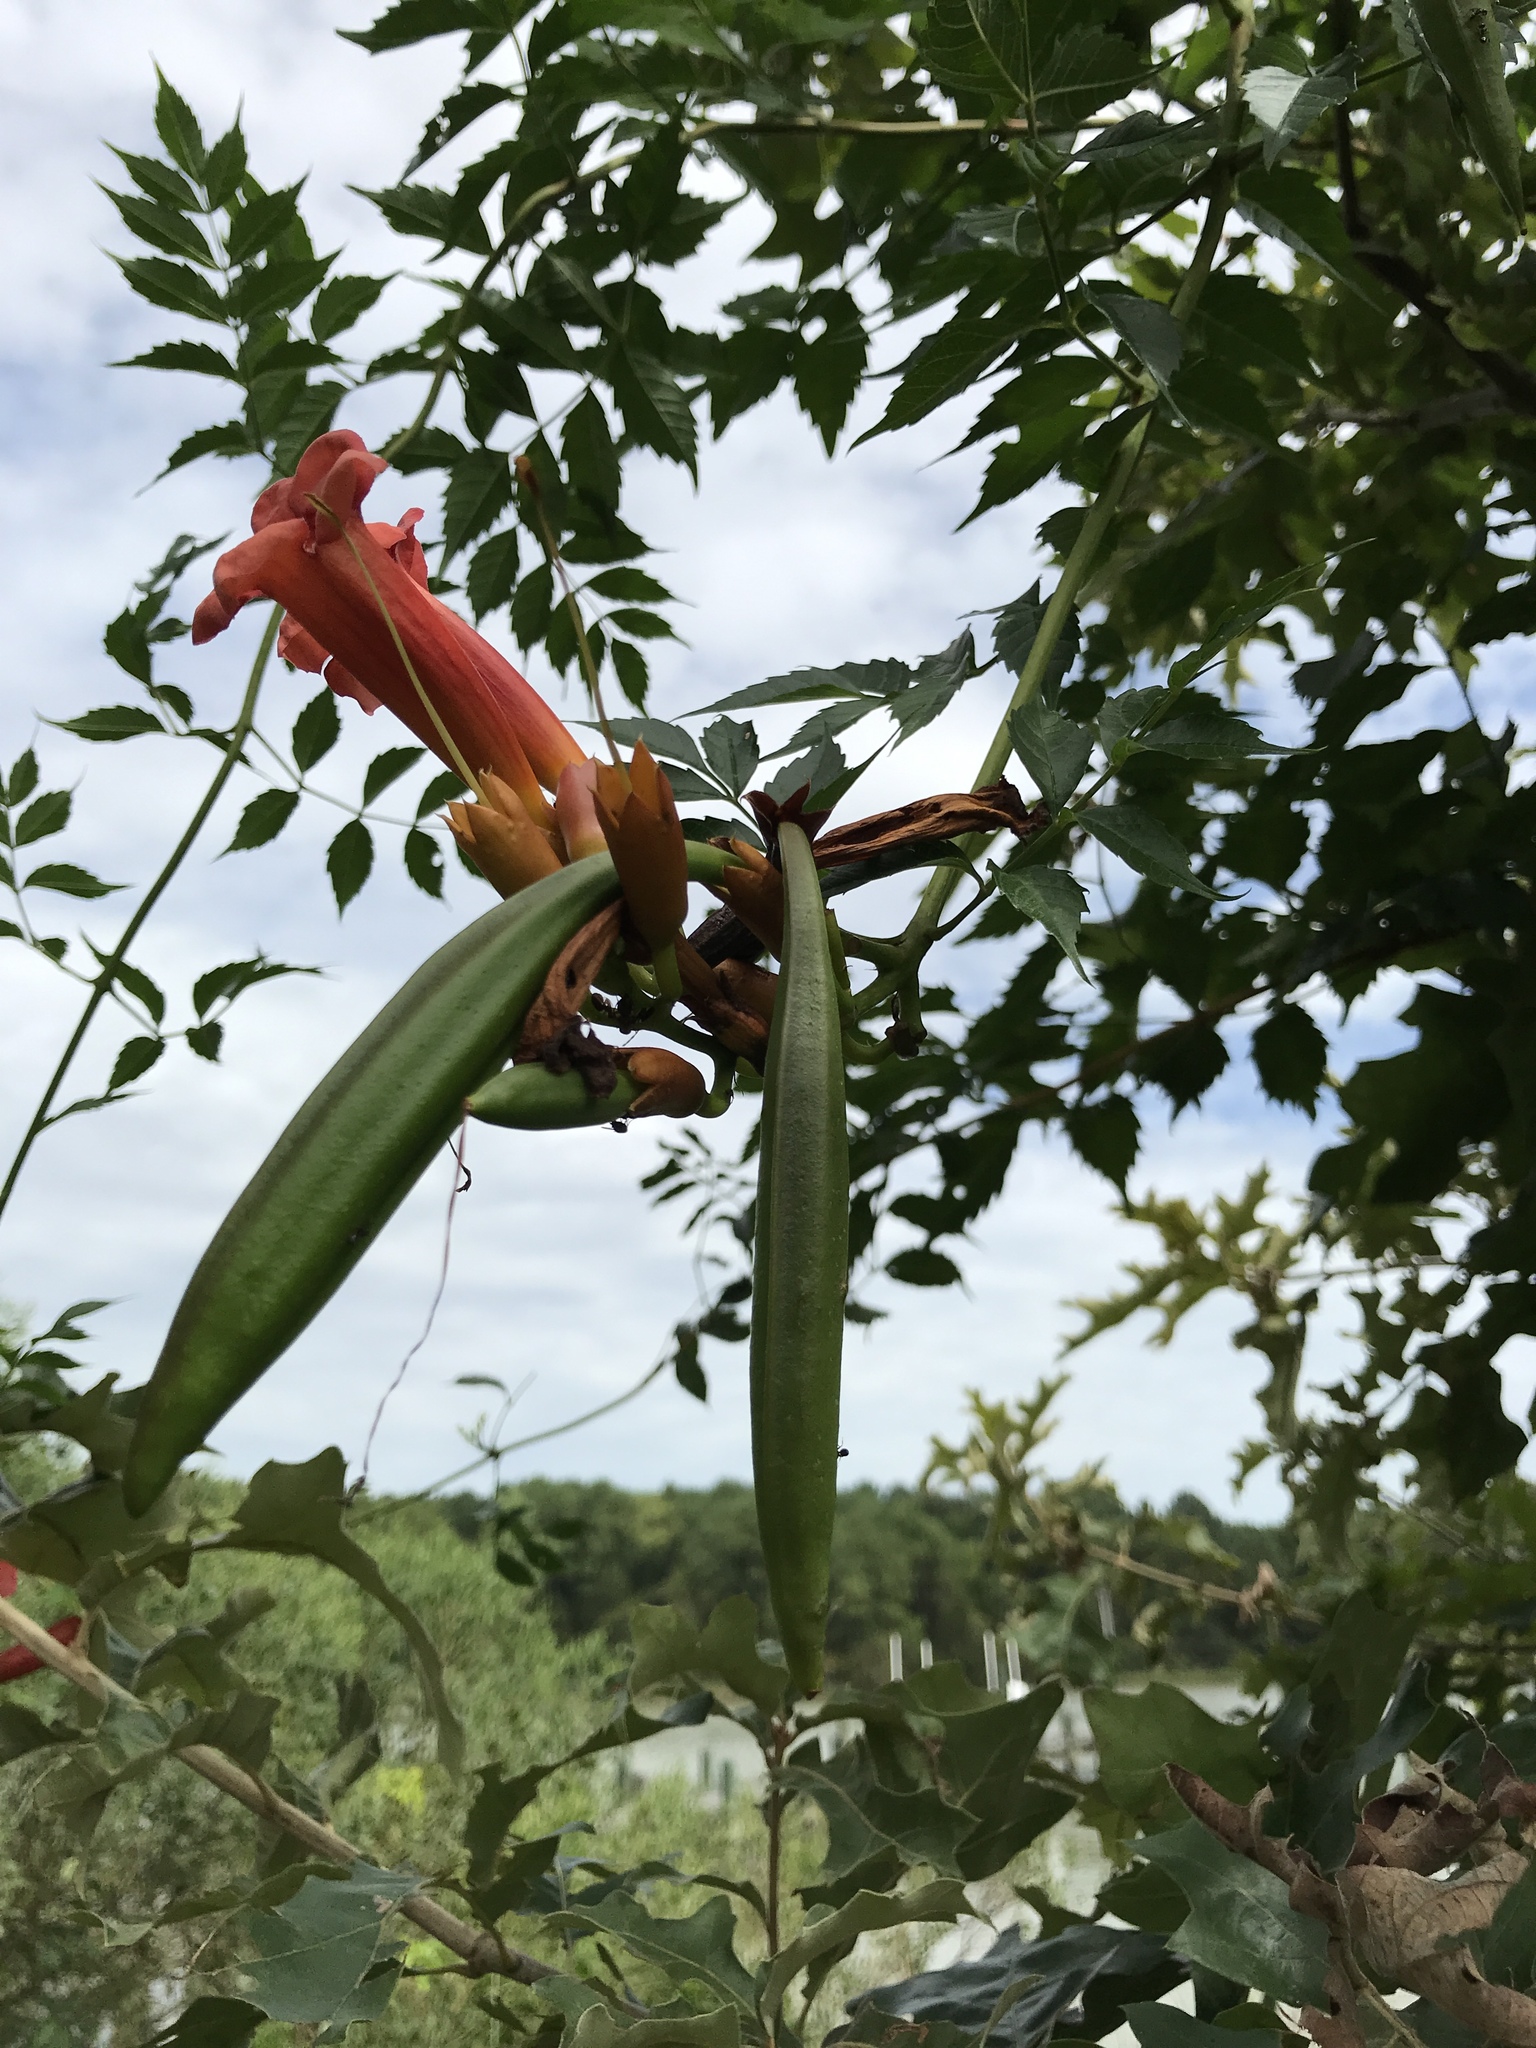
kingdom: Plantae
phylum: Tracheophyta
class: Magnoliopsida
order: Lamiales
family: Bignoniaceae
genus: Campsis
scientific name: Campsis radicans
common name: Trumpet-creeper
